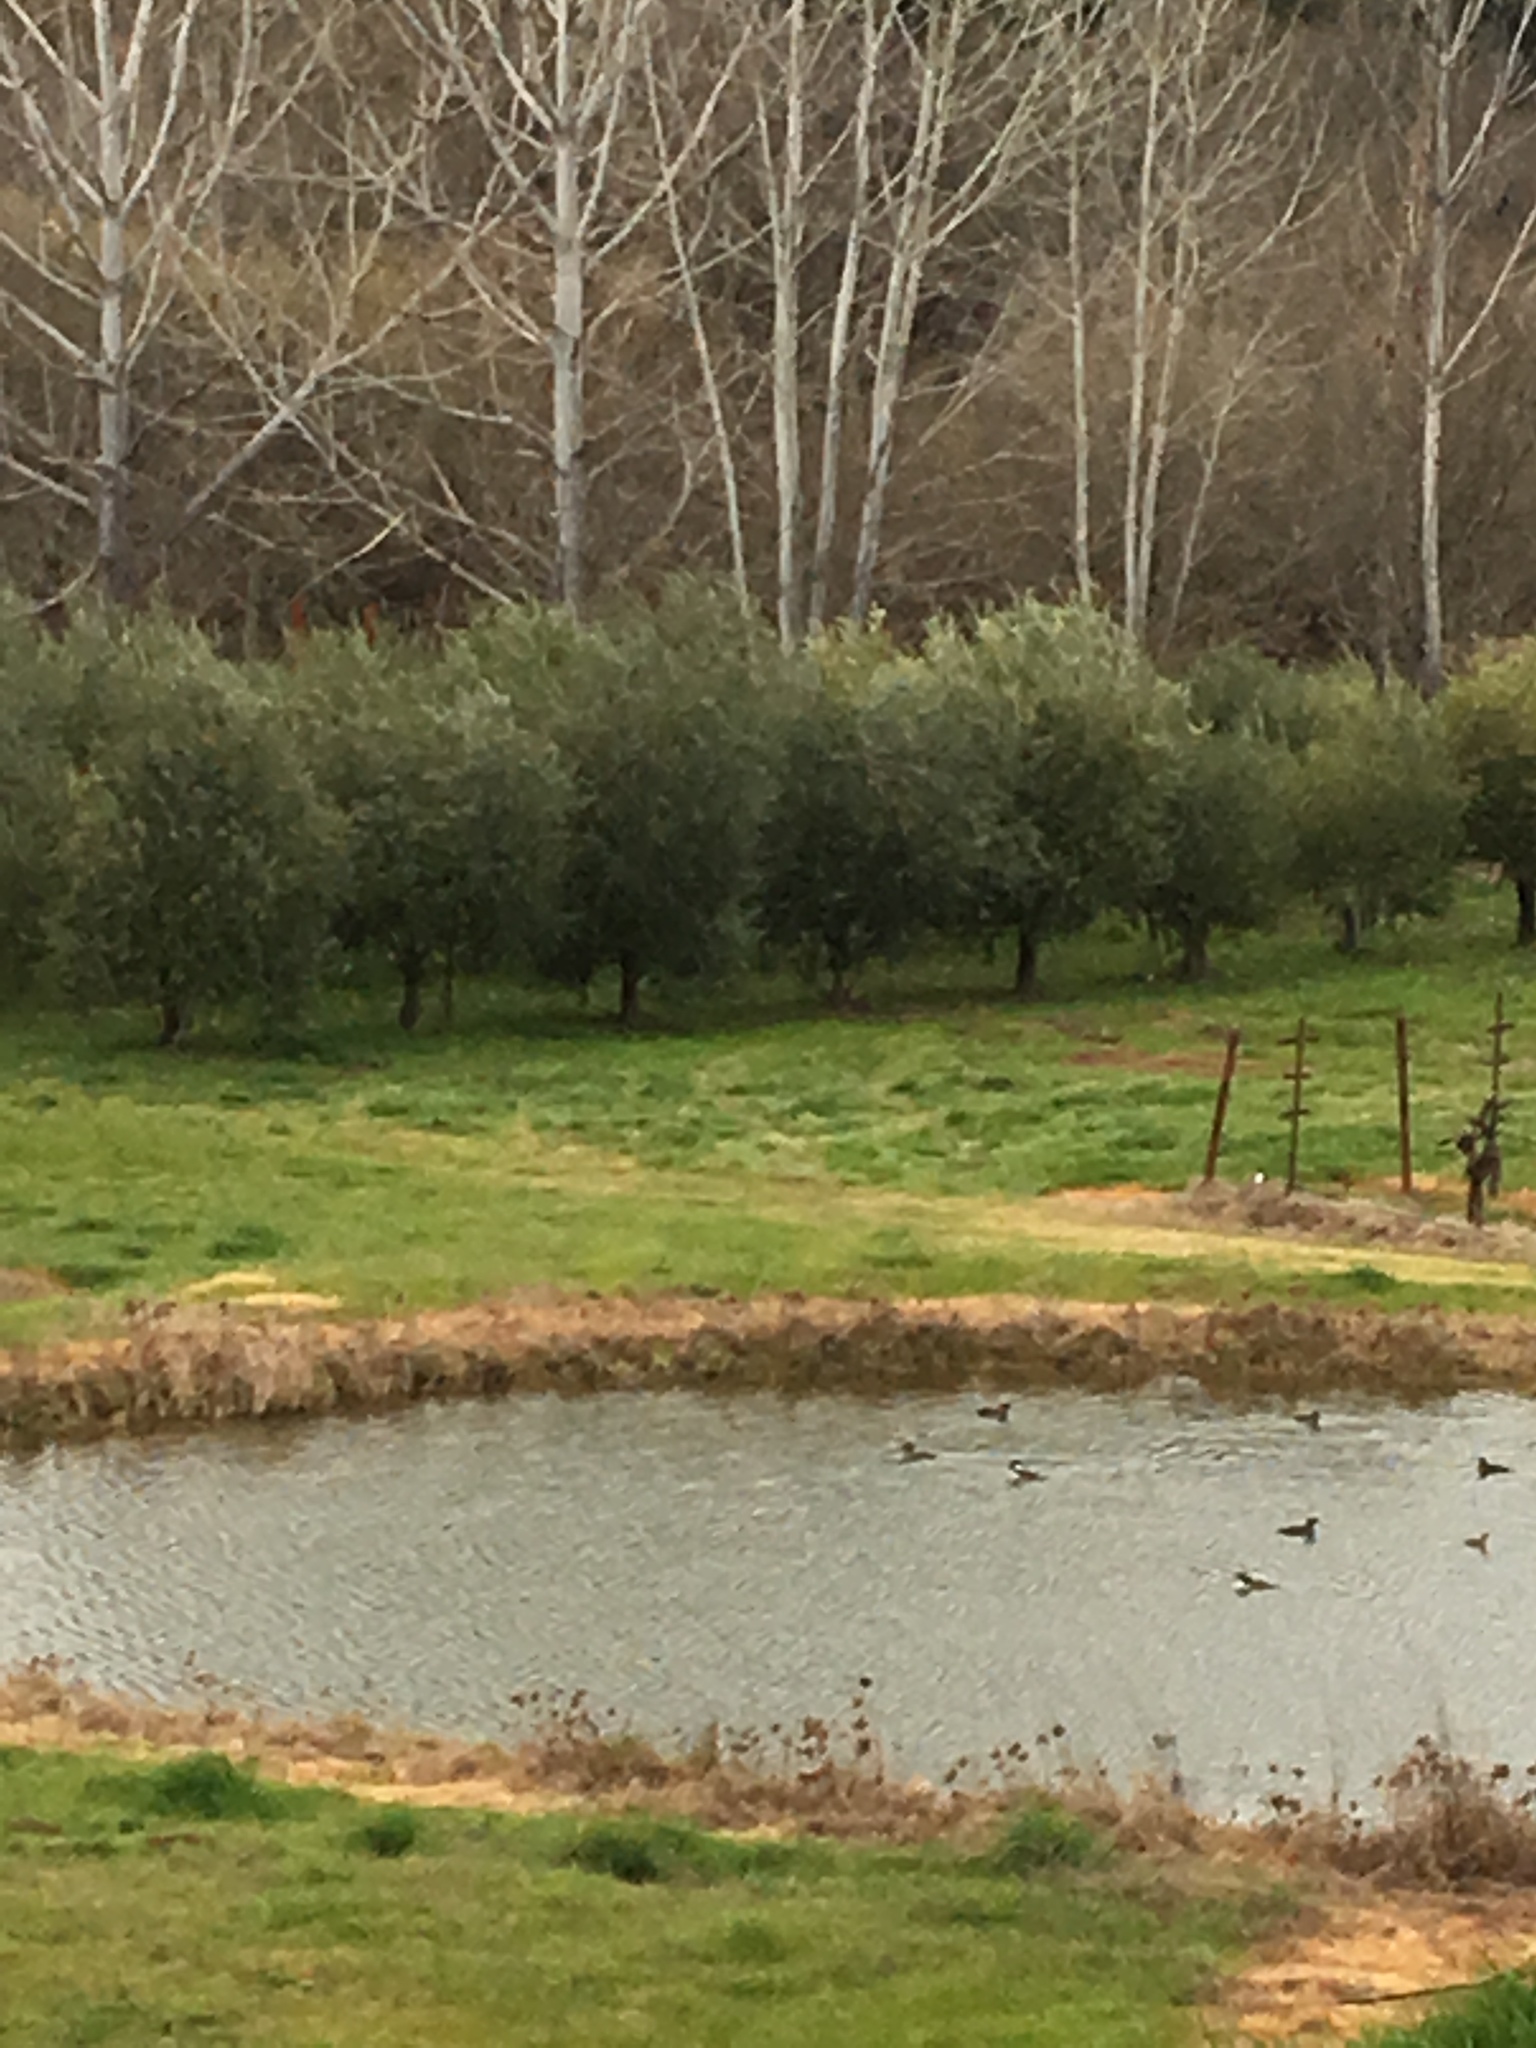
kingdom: Animalia
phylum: Chordata
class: Aves
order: Anseriformes
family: Anatidae
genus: Lophodytes
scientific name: Lophodytes cucullatus
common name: Hooded merganser
